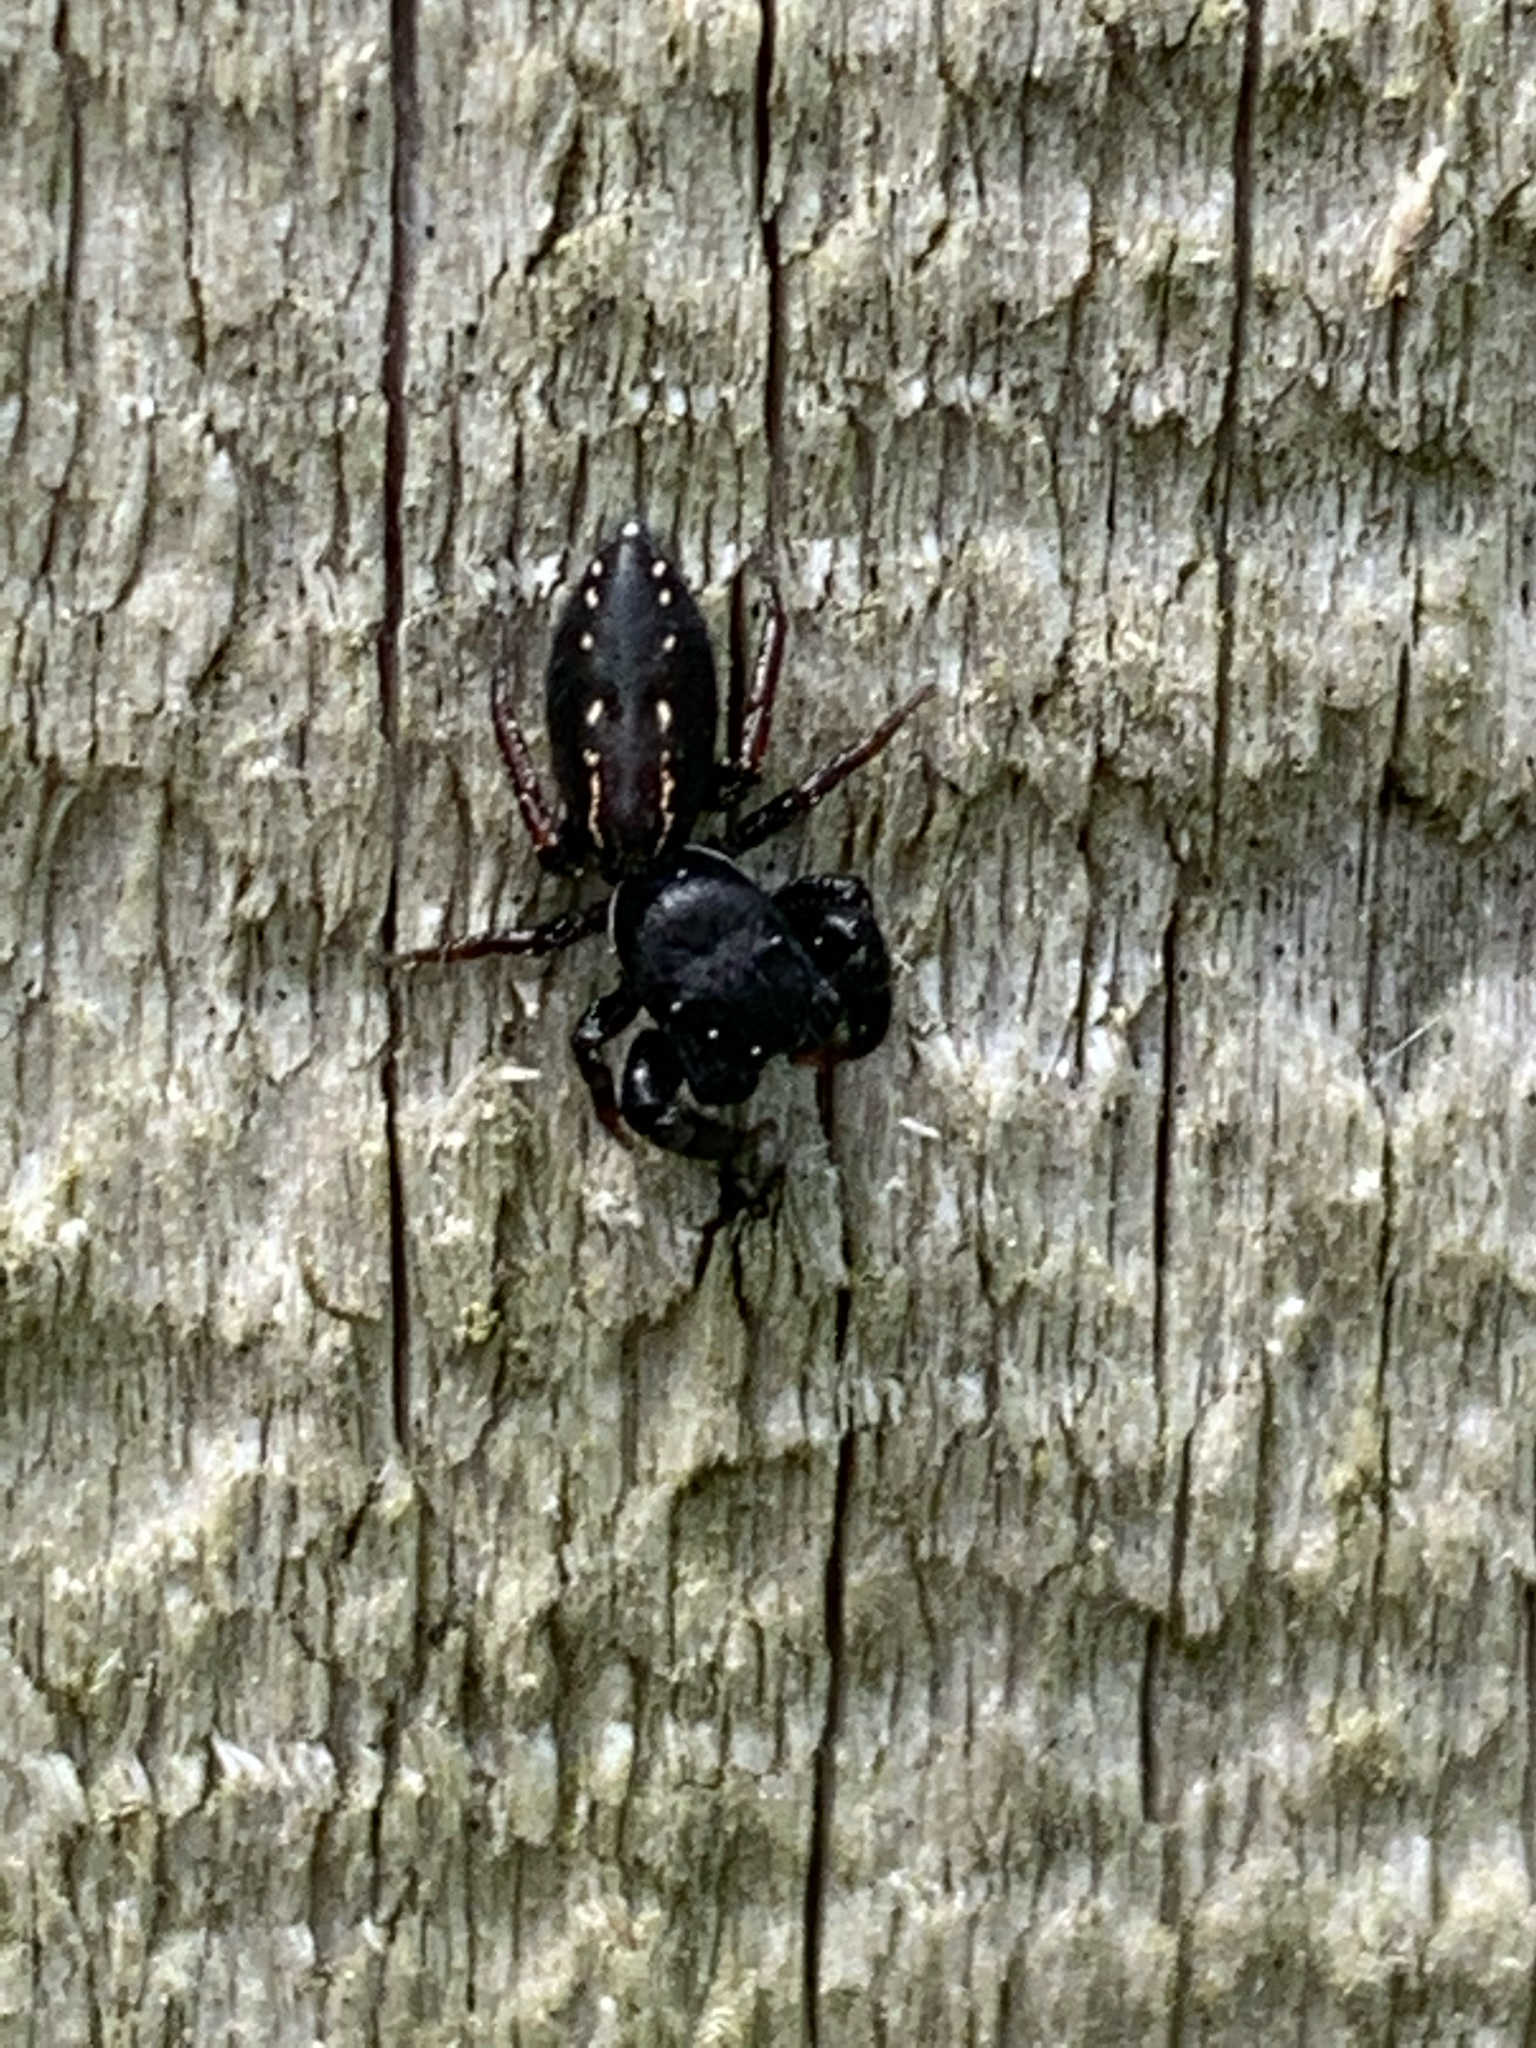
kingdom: Animalia
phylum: Arthropoda
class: Arachnida
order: Araneae
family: Salticidae
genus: Metacyrba
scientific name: Metacyrba taeniola
